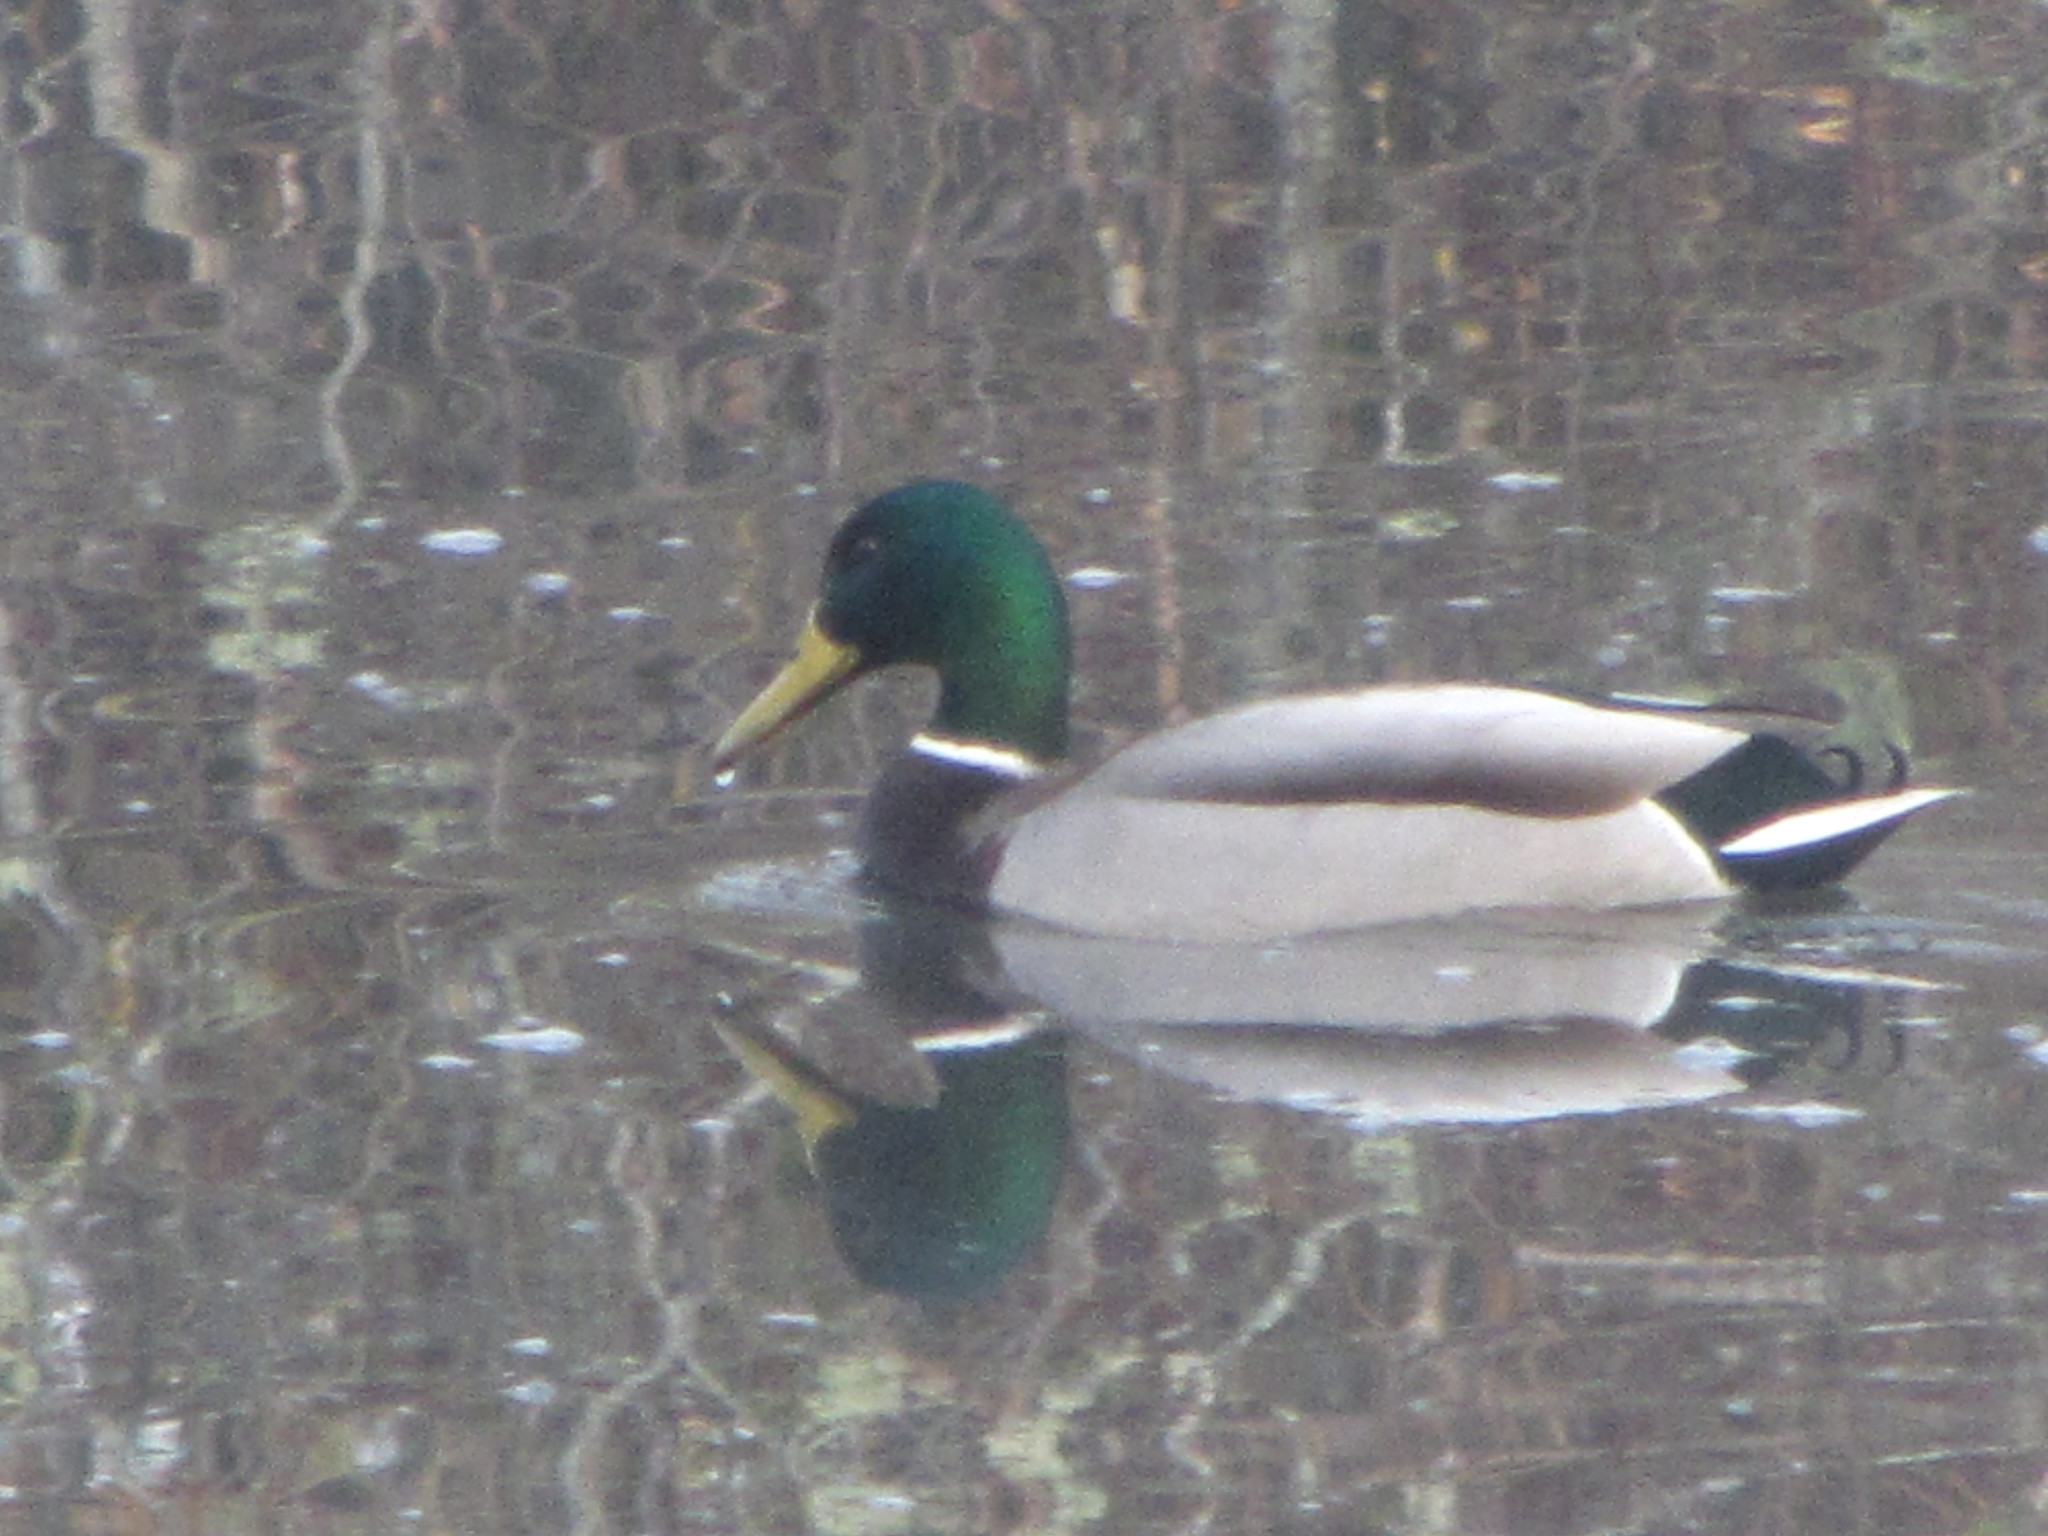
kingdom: Animalia
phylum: Chordata
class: Aves
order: Anseriformes
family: Anatidae
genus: Anas
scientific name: Anas platyrhynchos
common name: Mallard
